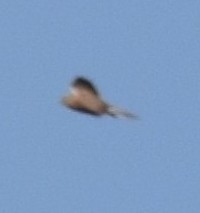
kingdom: Animalia
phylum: Chordata
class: Aves
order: Falconiformes
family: Falconidae
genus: Falco
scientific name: Falco rupicoloides
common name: Greater kestrel
